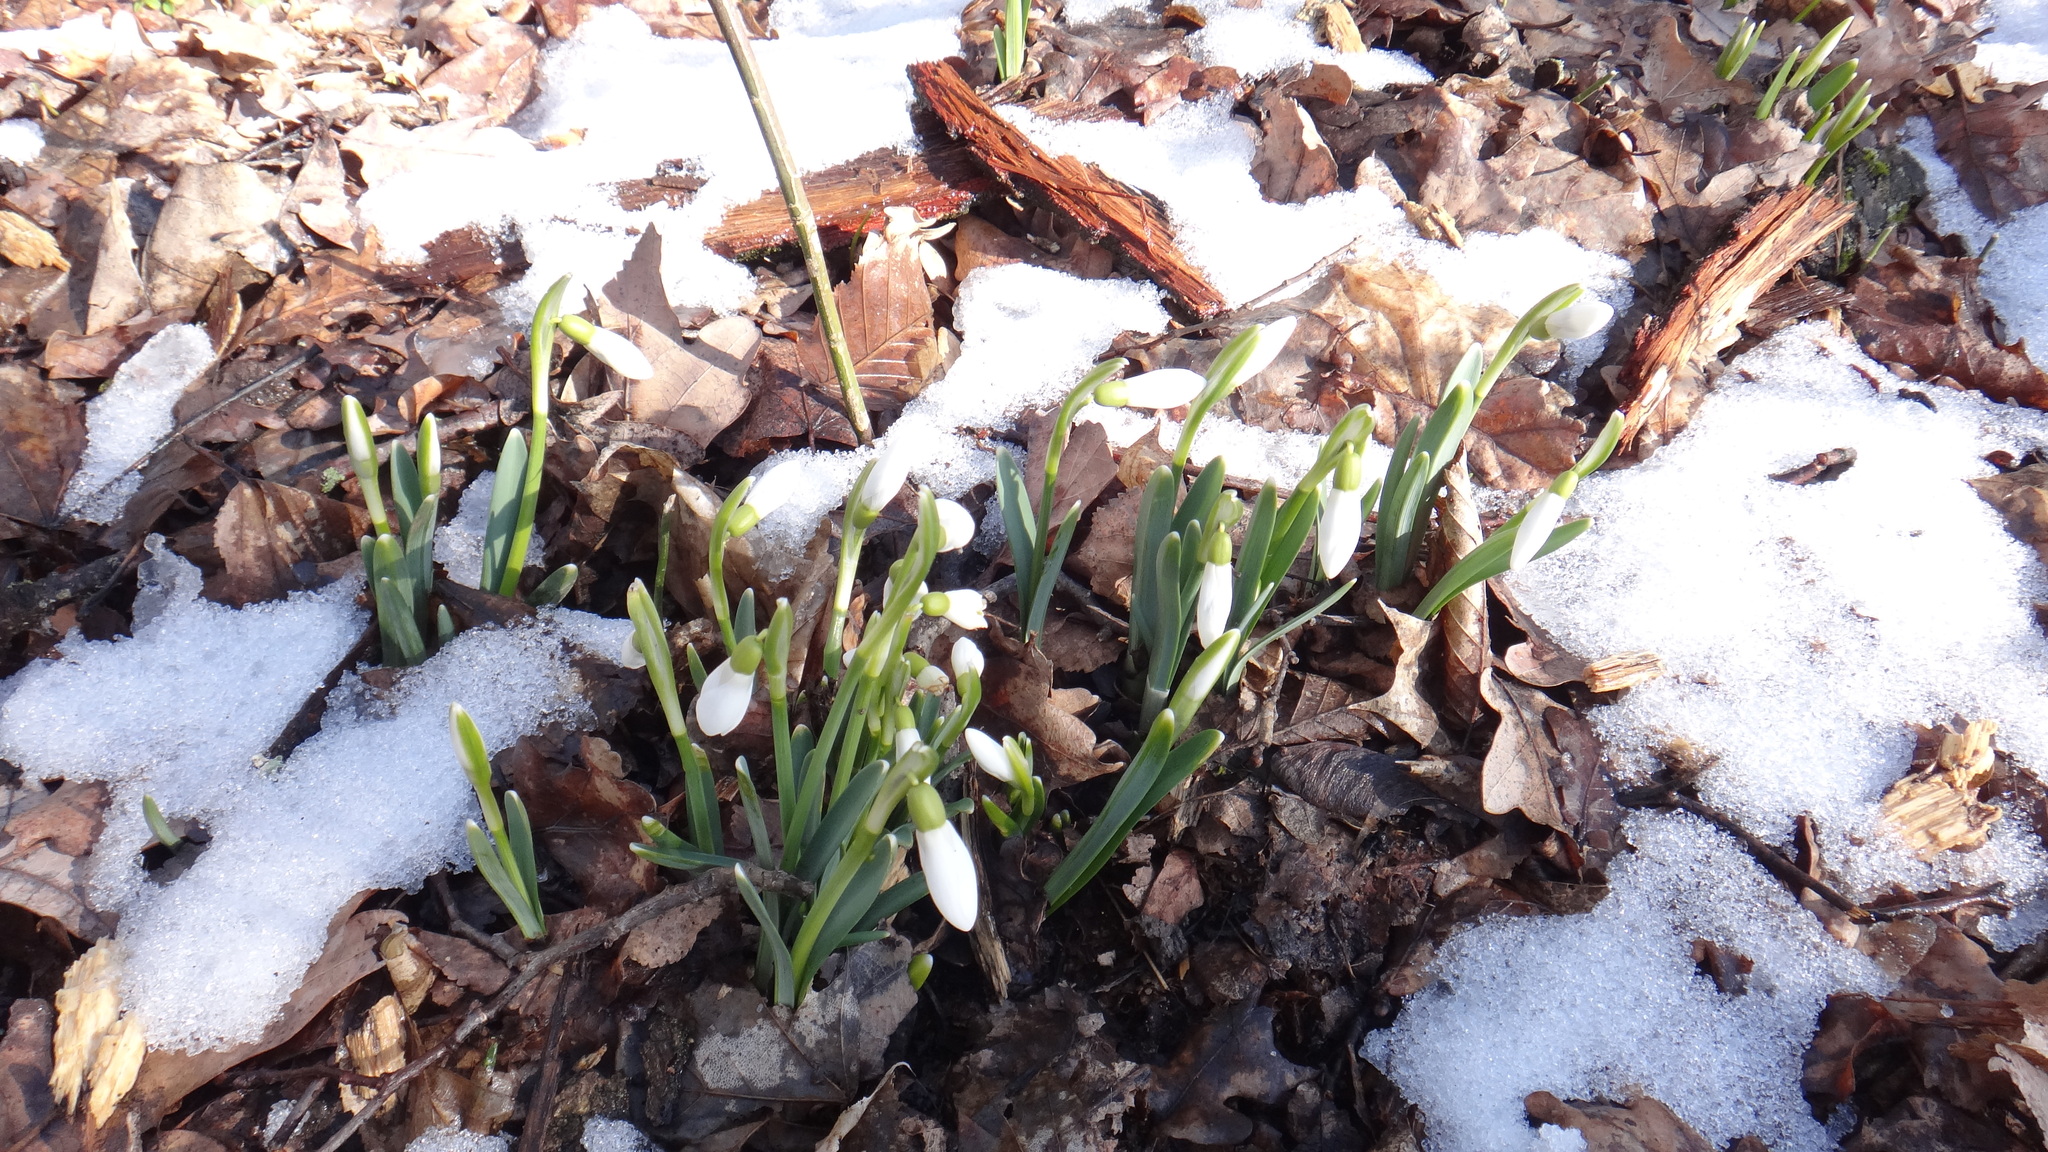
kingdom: Plantae
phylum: Tracheophyta
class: Liliopsida
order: Asparagales
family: Amaryllidaceae
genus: Galanthus
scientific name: Galanthus nivalis
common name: Snowdrop
